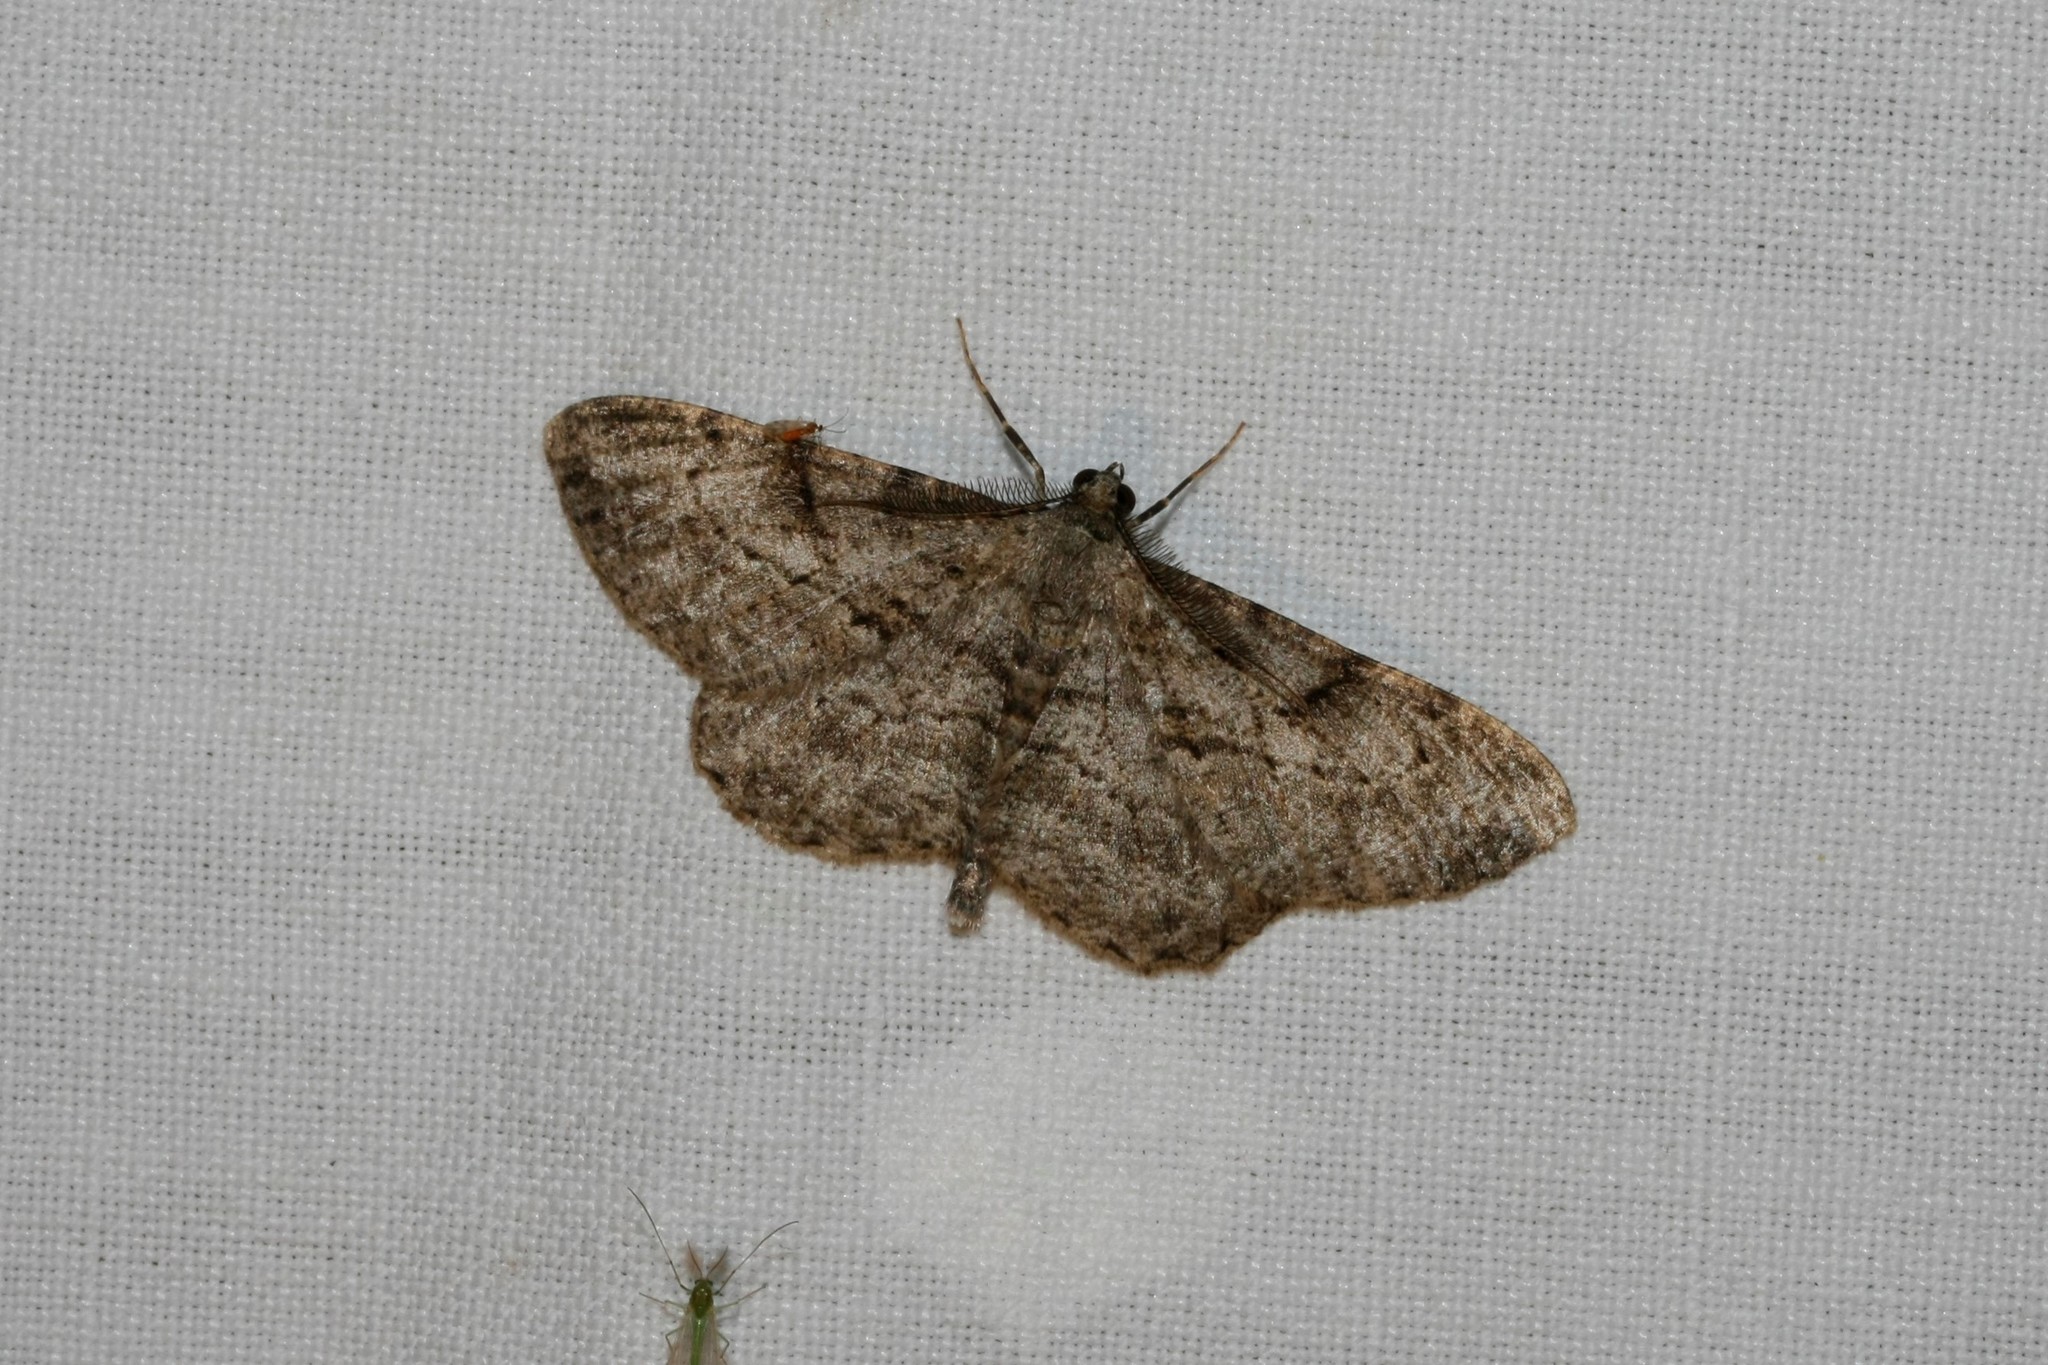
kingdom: Animalia
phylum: Arthropoda
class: Insecta
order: Lepidoptera
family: Geometridae
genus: Peribatodes
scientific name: Peribatodes rhomboidaria
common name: Willow beauty
